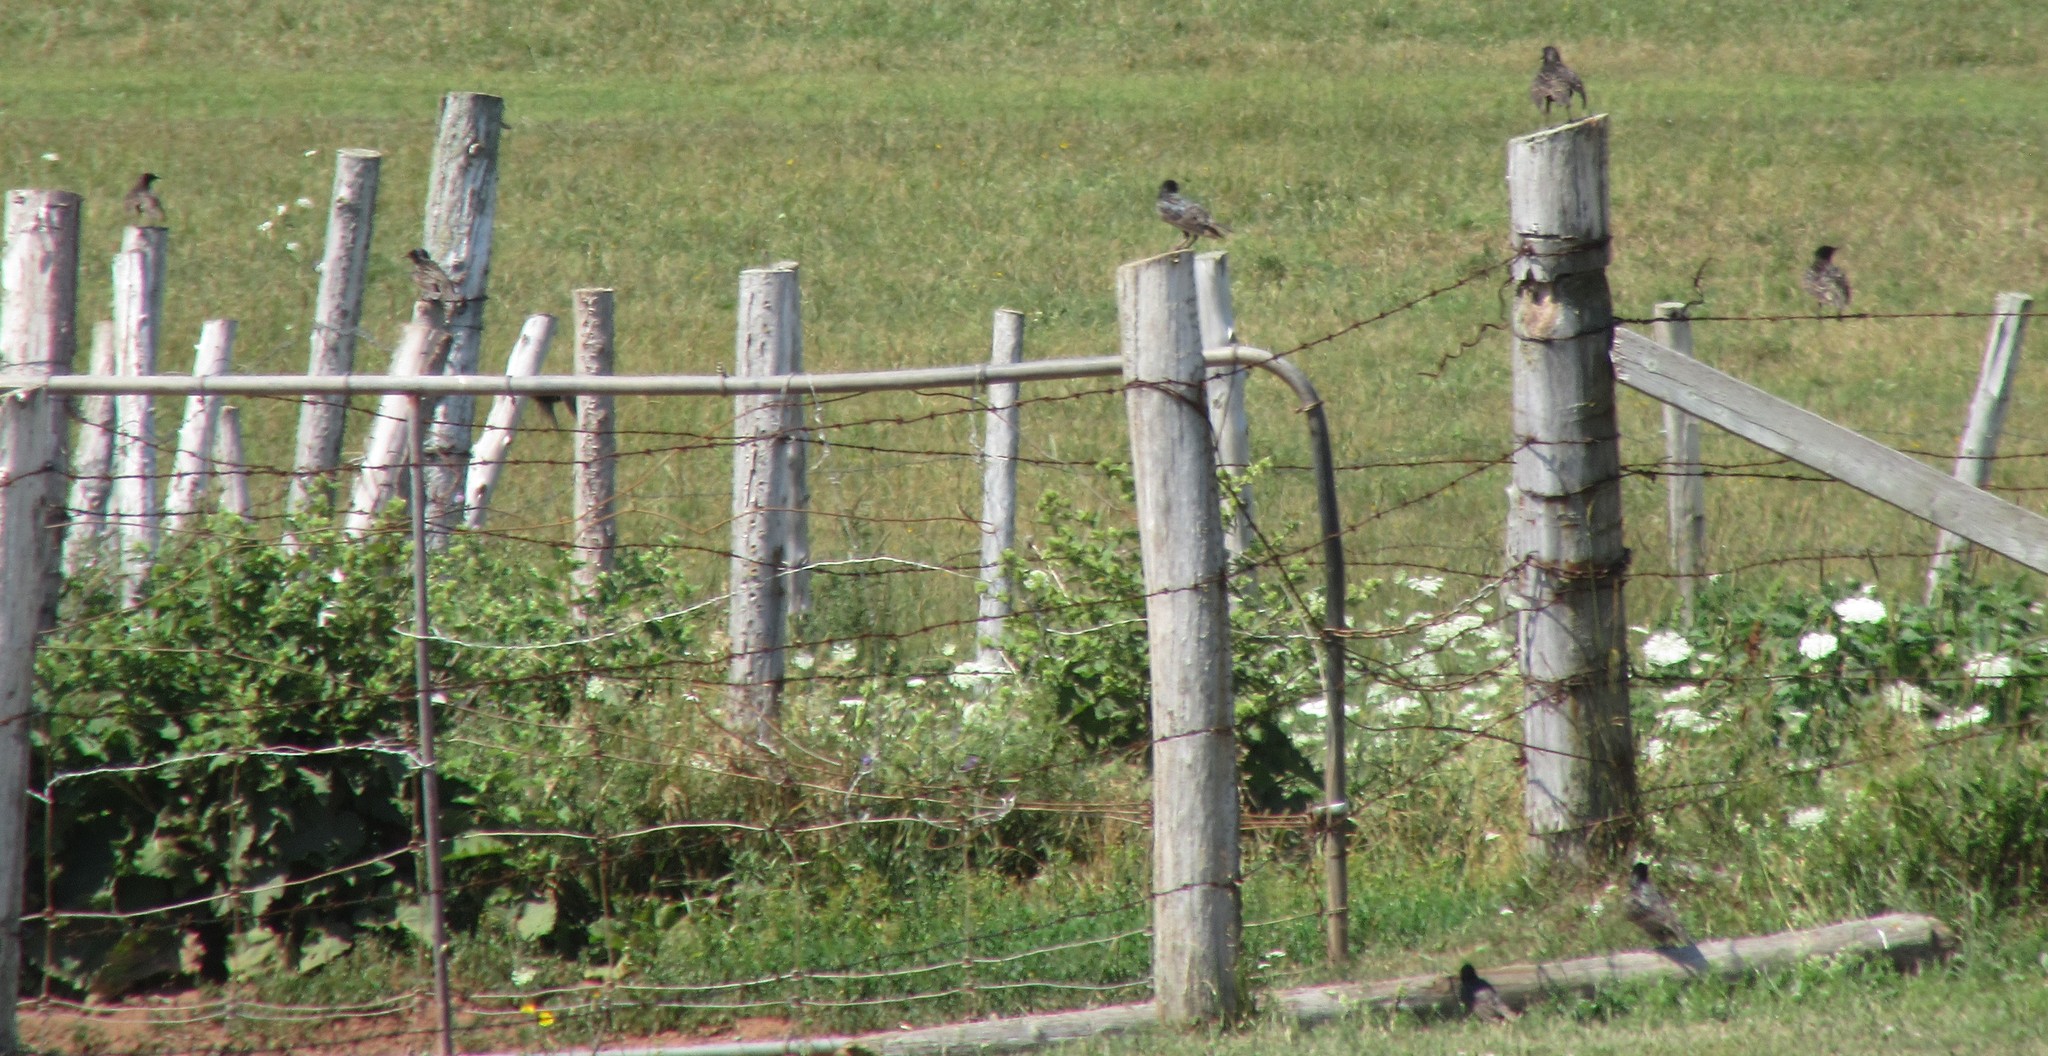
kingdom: Animalia
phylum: Chordata
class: Aves
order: Passeriformes
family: Sturnidae
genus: Sturnus
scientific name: Sturnus vulgaris
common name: Common starling
